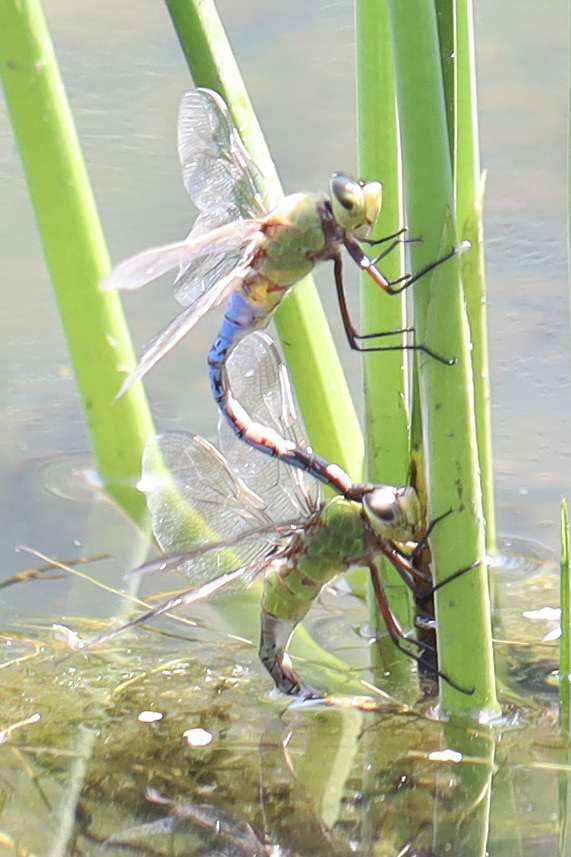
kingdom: Animalia
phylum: Arthropoda
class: Insecta
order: Odonata
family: Aeshnidae
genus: Anax
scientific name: Anax junius
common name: Common green darner
